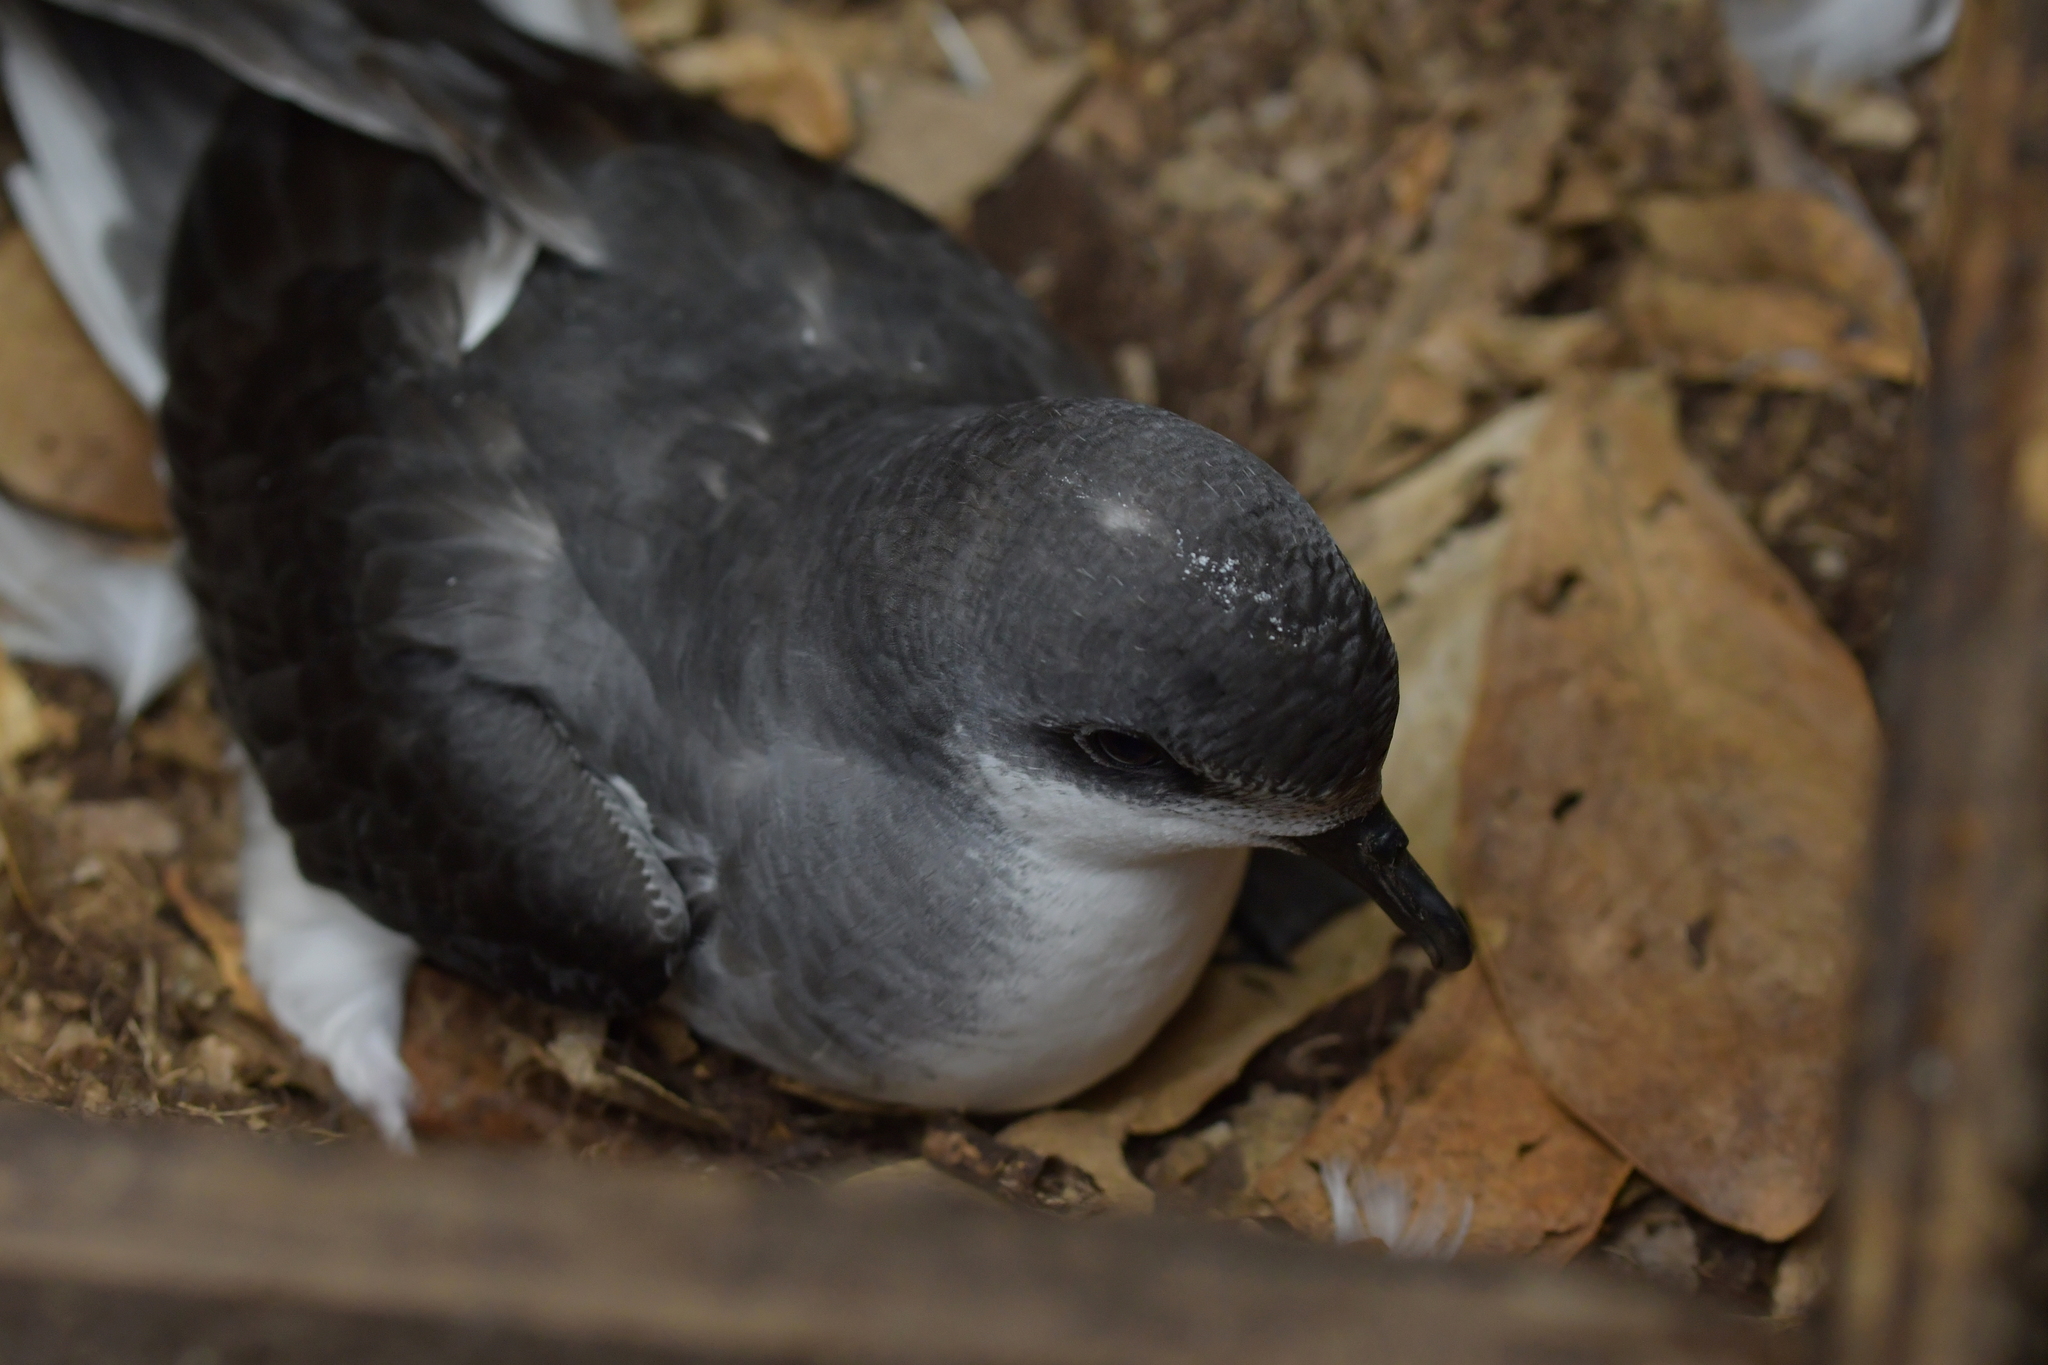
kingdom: Animalia
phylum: Chordata
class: Aves
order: Procellariiformes
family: Procellariidae
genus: Pterodroma
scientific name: Pterodroma axillaris
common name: Chatham petrel
